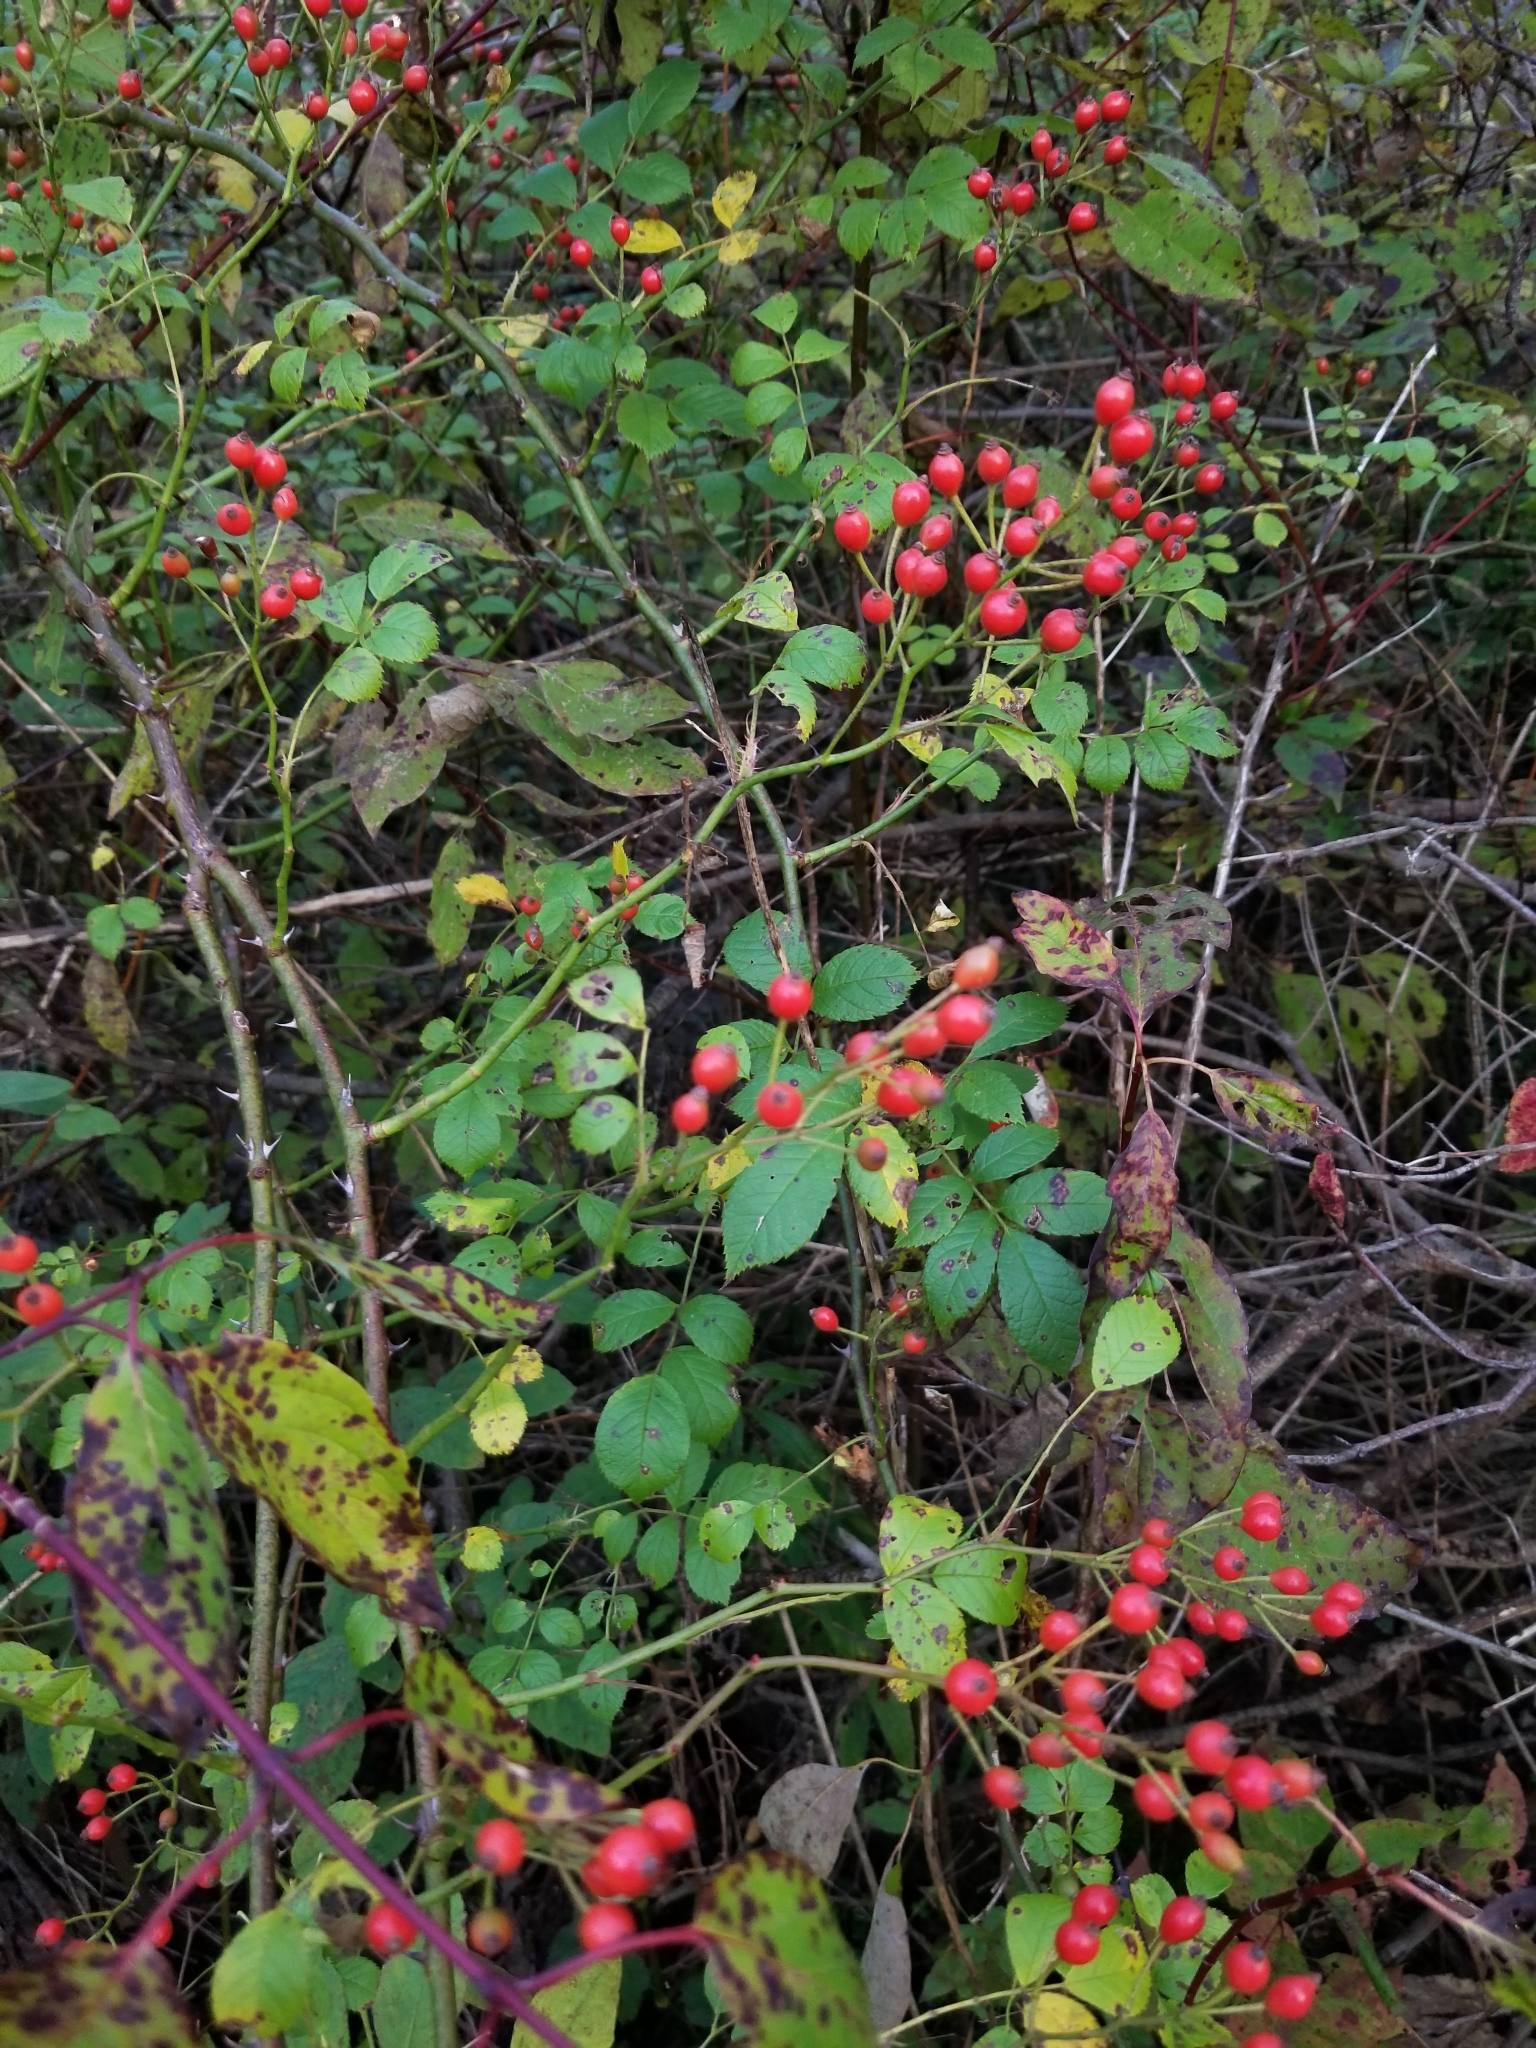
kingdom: Plantae
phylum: Tracheophyta
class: Magnoliopsida
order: Rosales
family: Rosaceae
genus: Rosa
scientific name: Rosa multiflora
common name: Multiflora rose
